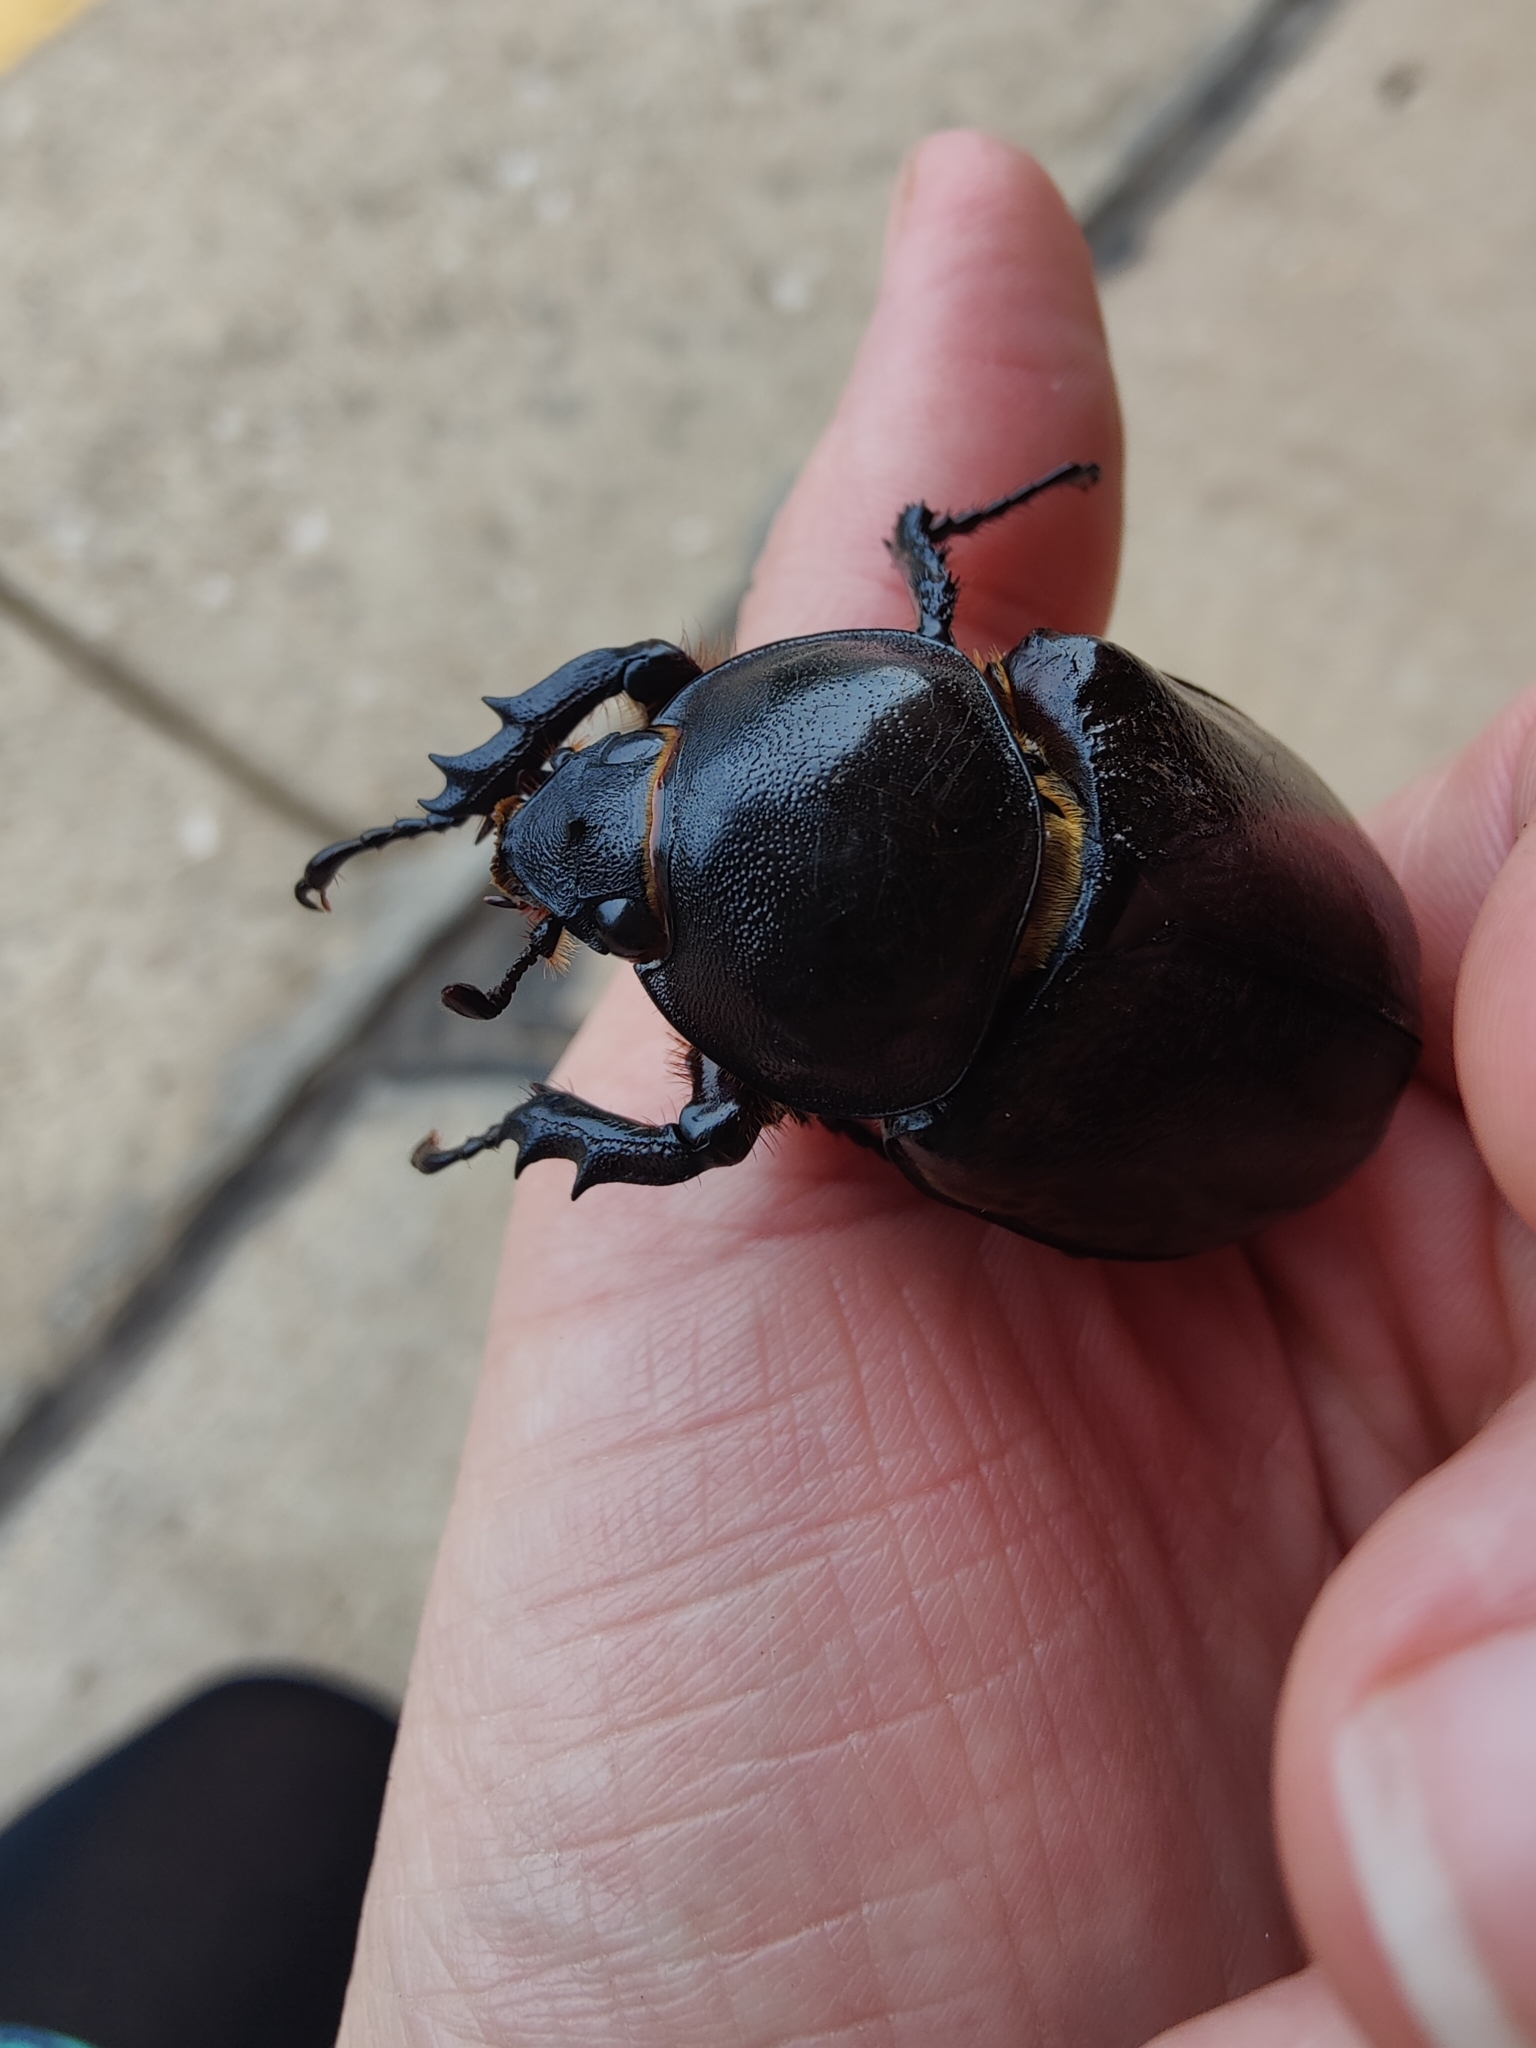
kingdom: Animalia
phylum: Arthropoda
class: Insecta
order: Coleoptera
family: Scarabaeidae
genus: Dynastes
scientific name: Dynastes tityus
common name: Eastern hercules beetle
